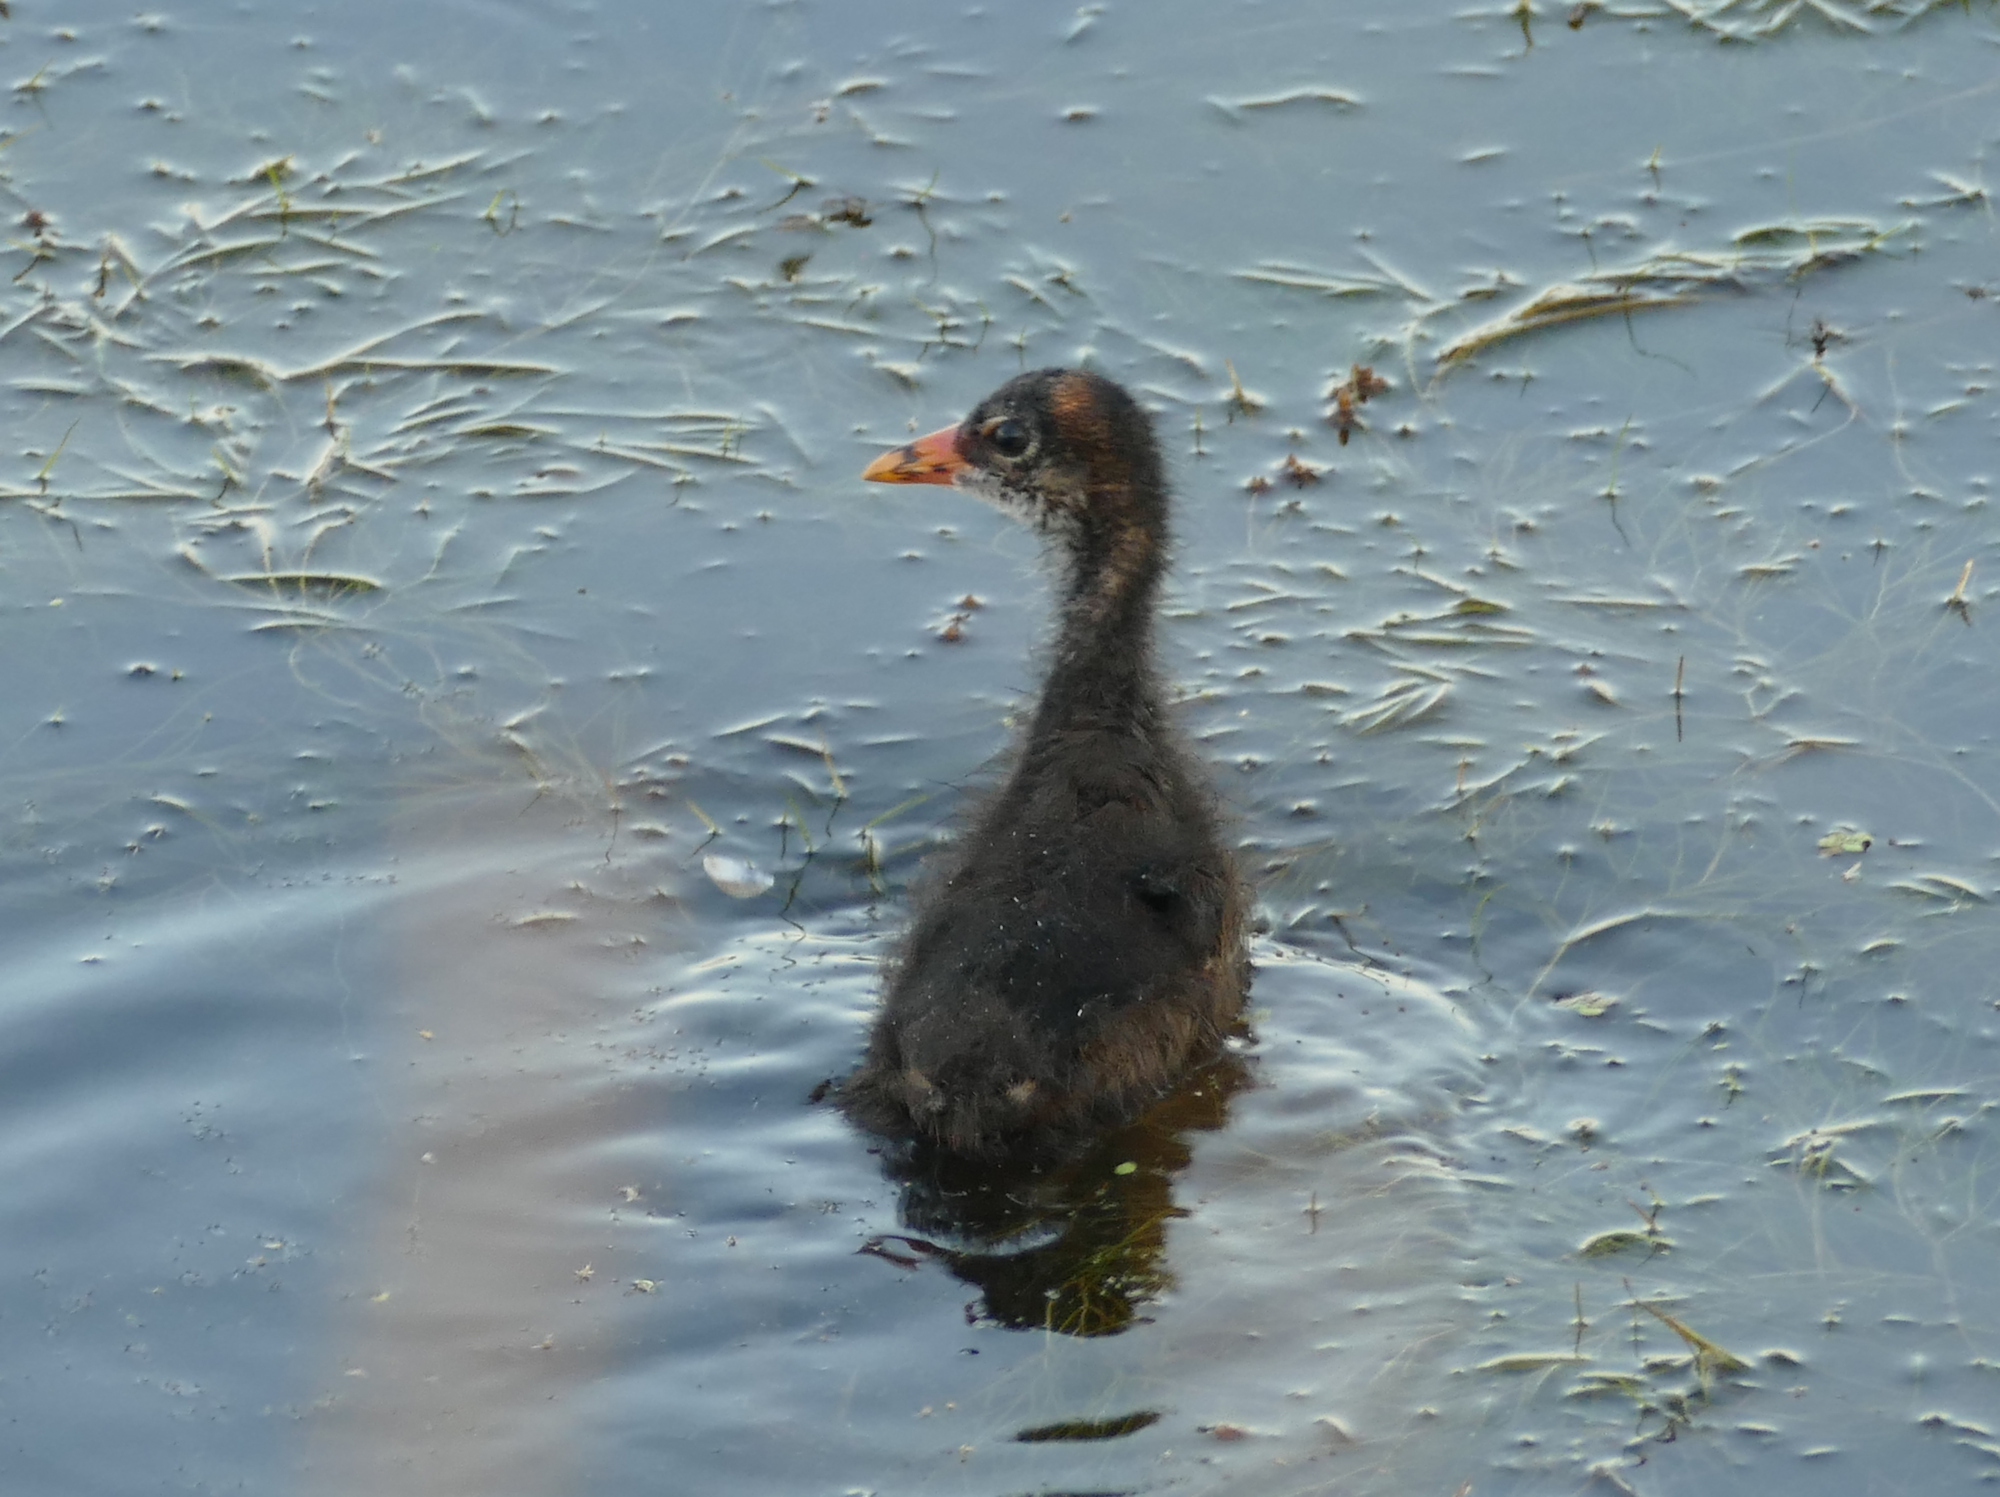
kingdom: Animalia
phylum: Chordata
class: Aves
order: Gruiformes
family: Rallidae
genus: Gallinula
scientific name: Gallinula chloropus
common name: Common moorhen
